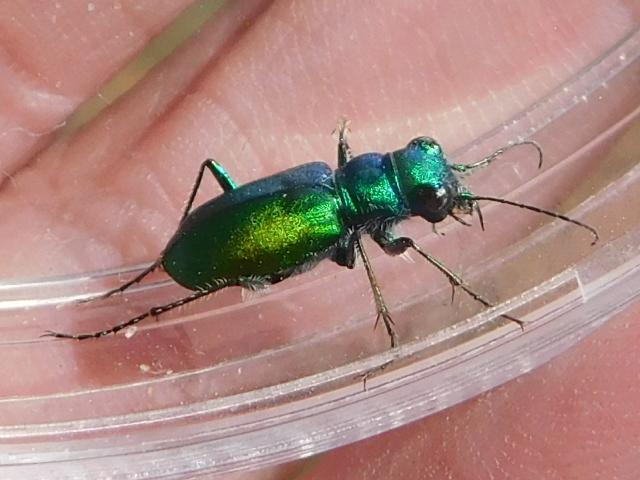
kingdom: Animalia
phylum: Arthropoda
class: Insecta
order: Coleoptera
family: Carabidae
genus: Cicindela
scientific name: Cicindela scutellaris
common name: Festive tiger beetle
